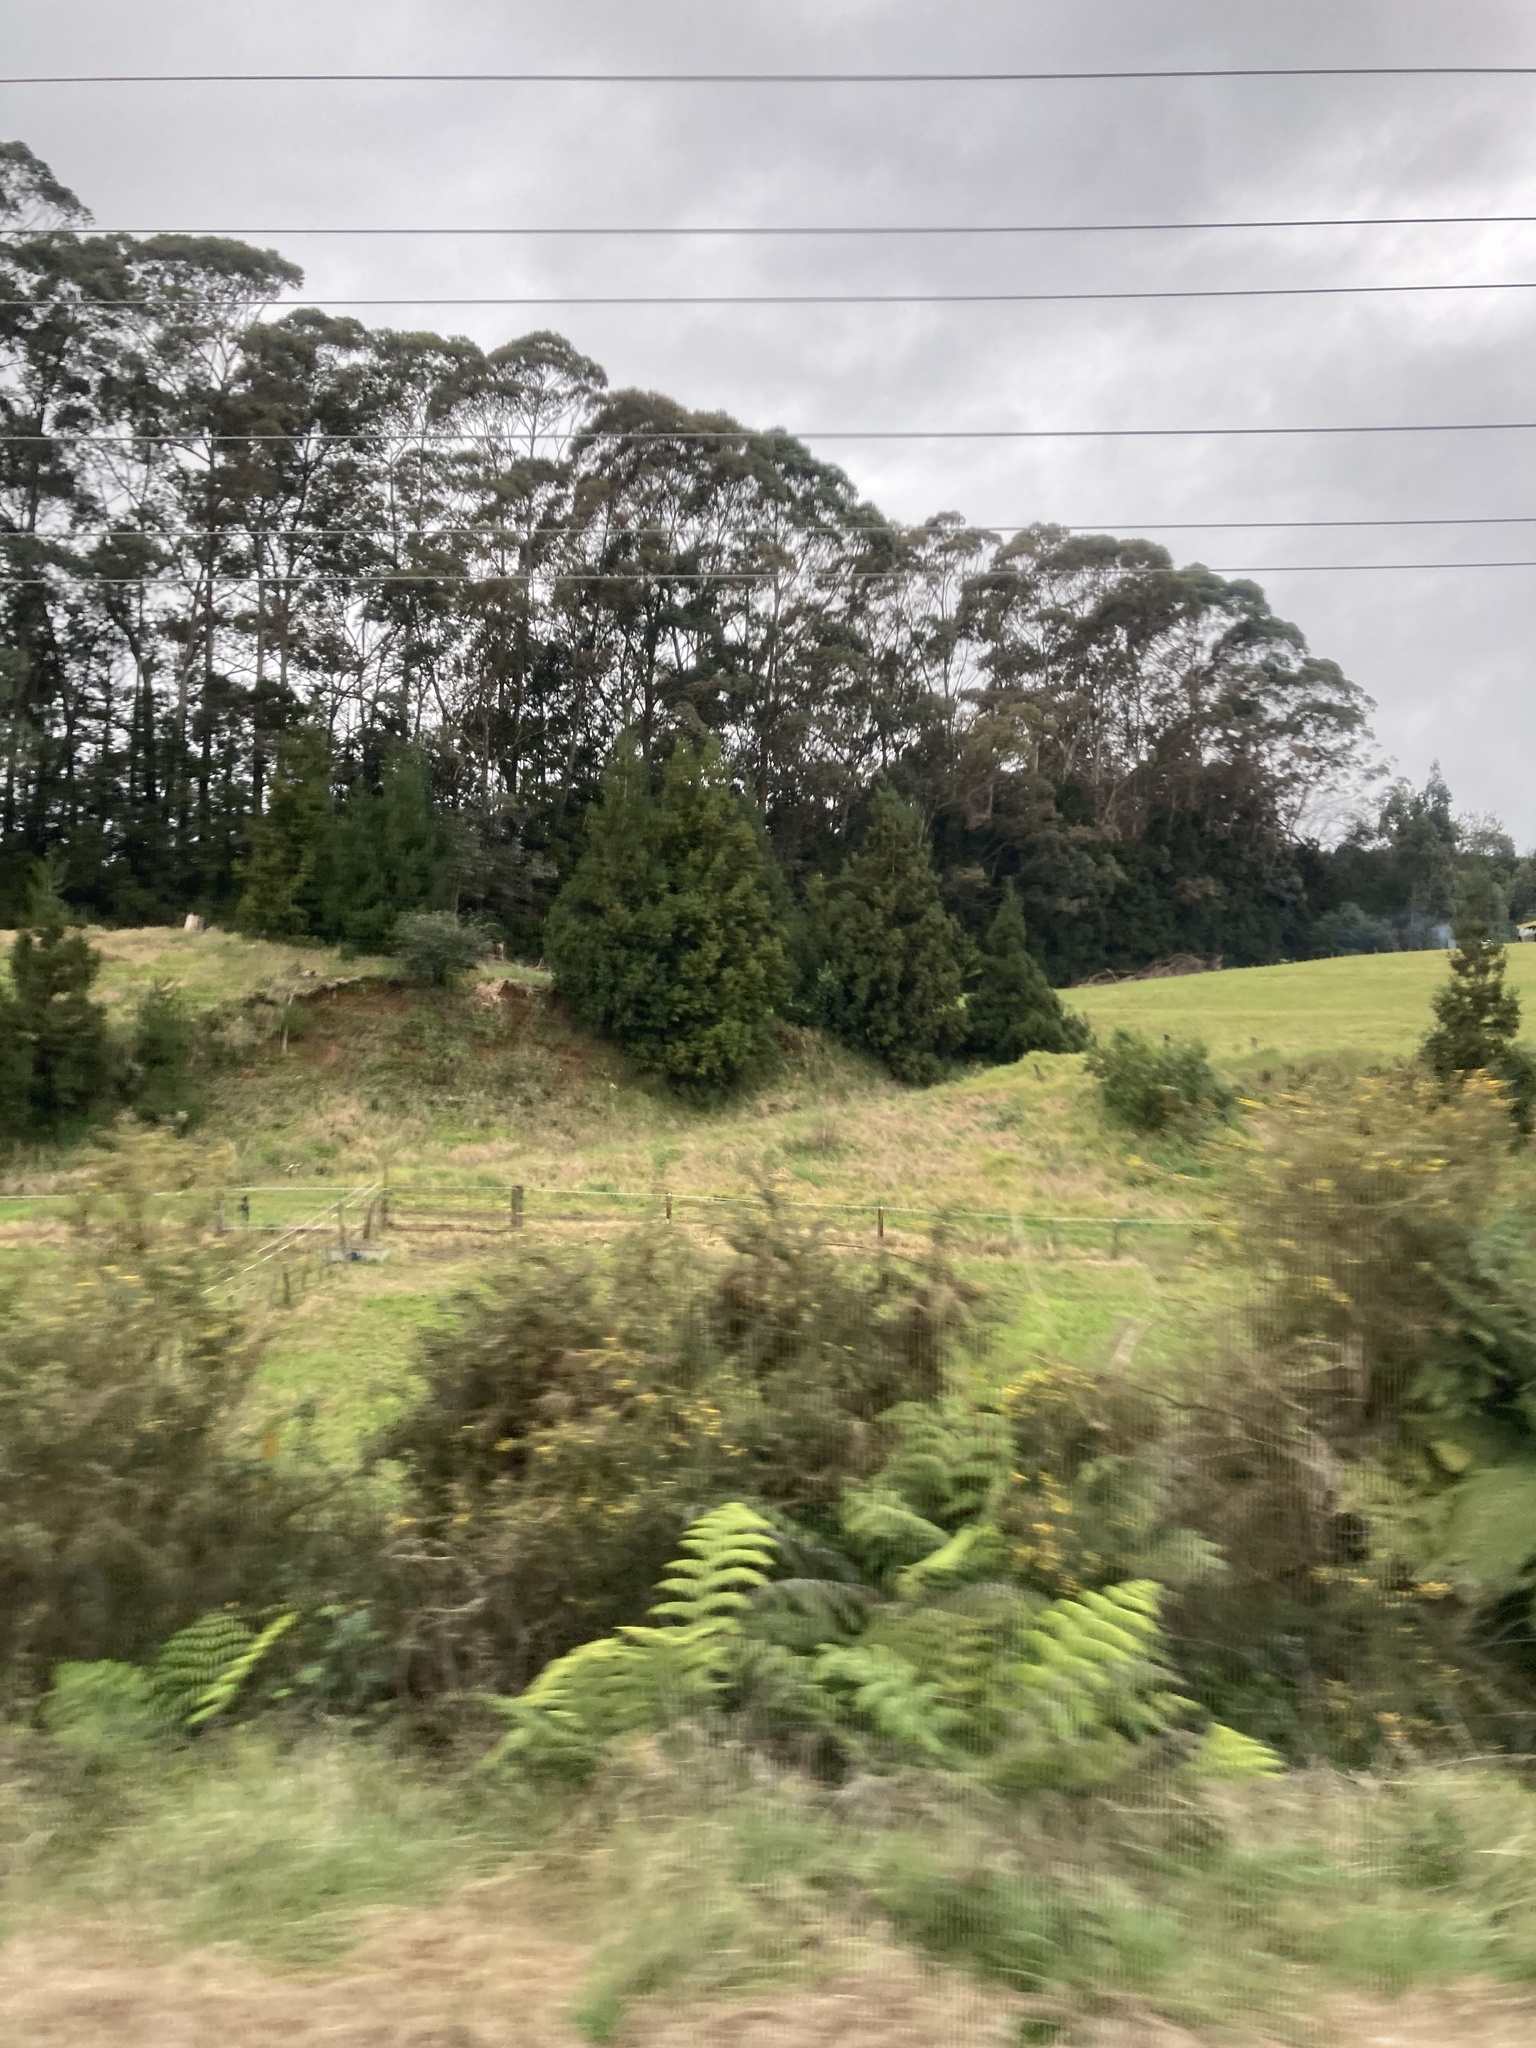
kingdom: Plantae
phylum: Tracheophyta
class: Magnoliopsida
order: Fabales
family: Fabaceae
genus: Ulex
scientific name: Ulex europaeus
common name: Common gorse
